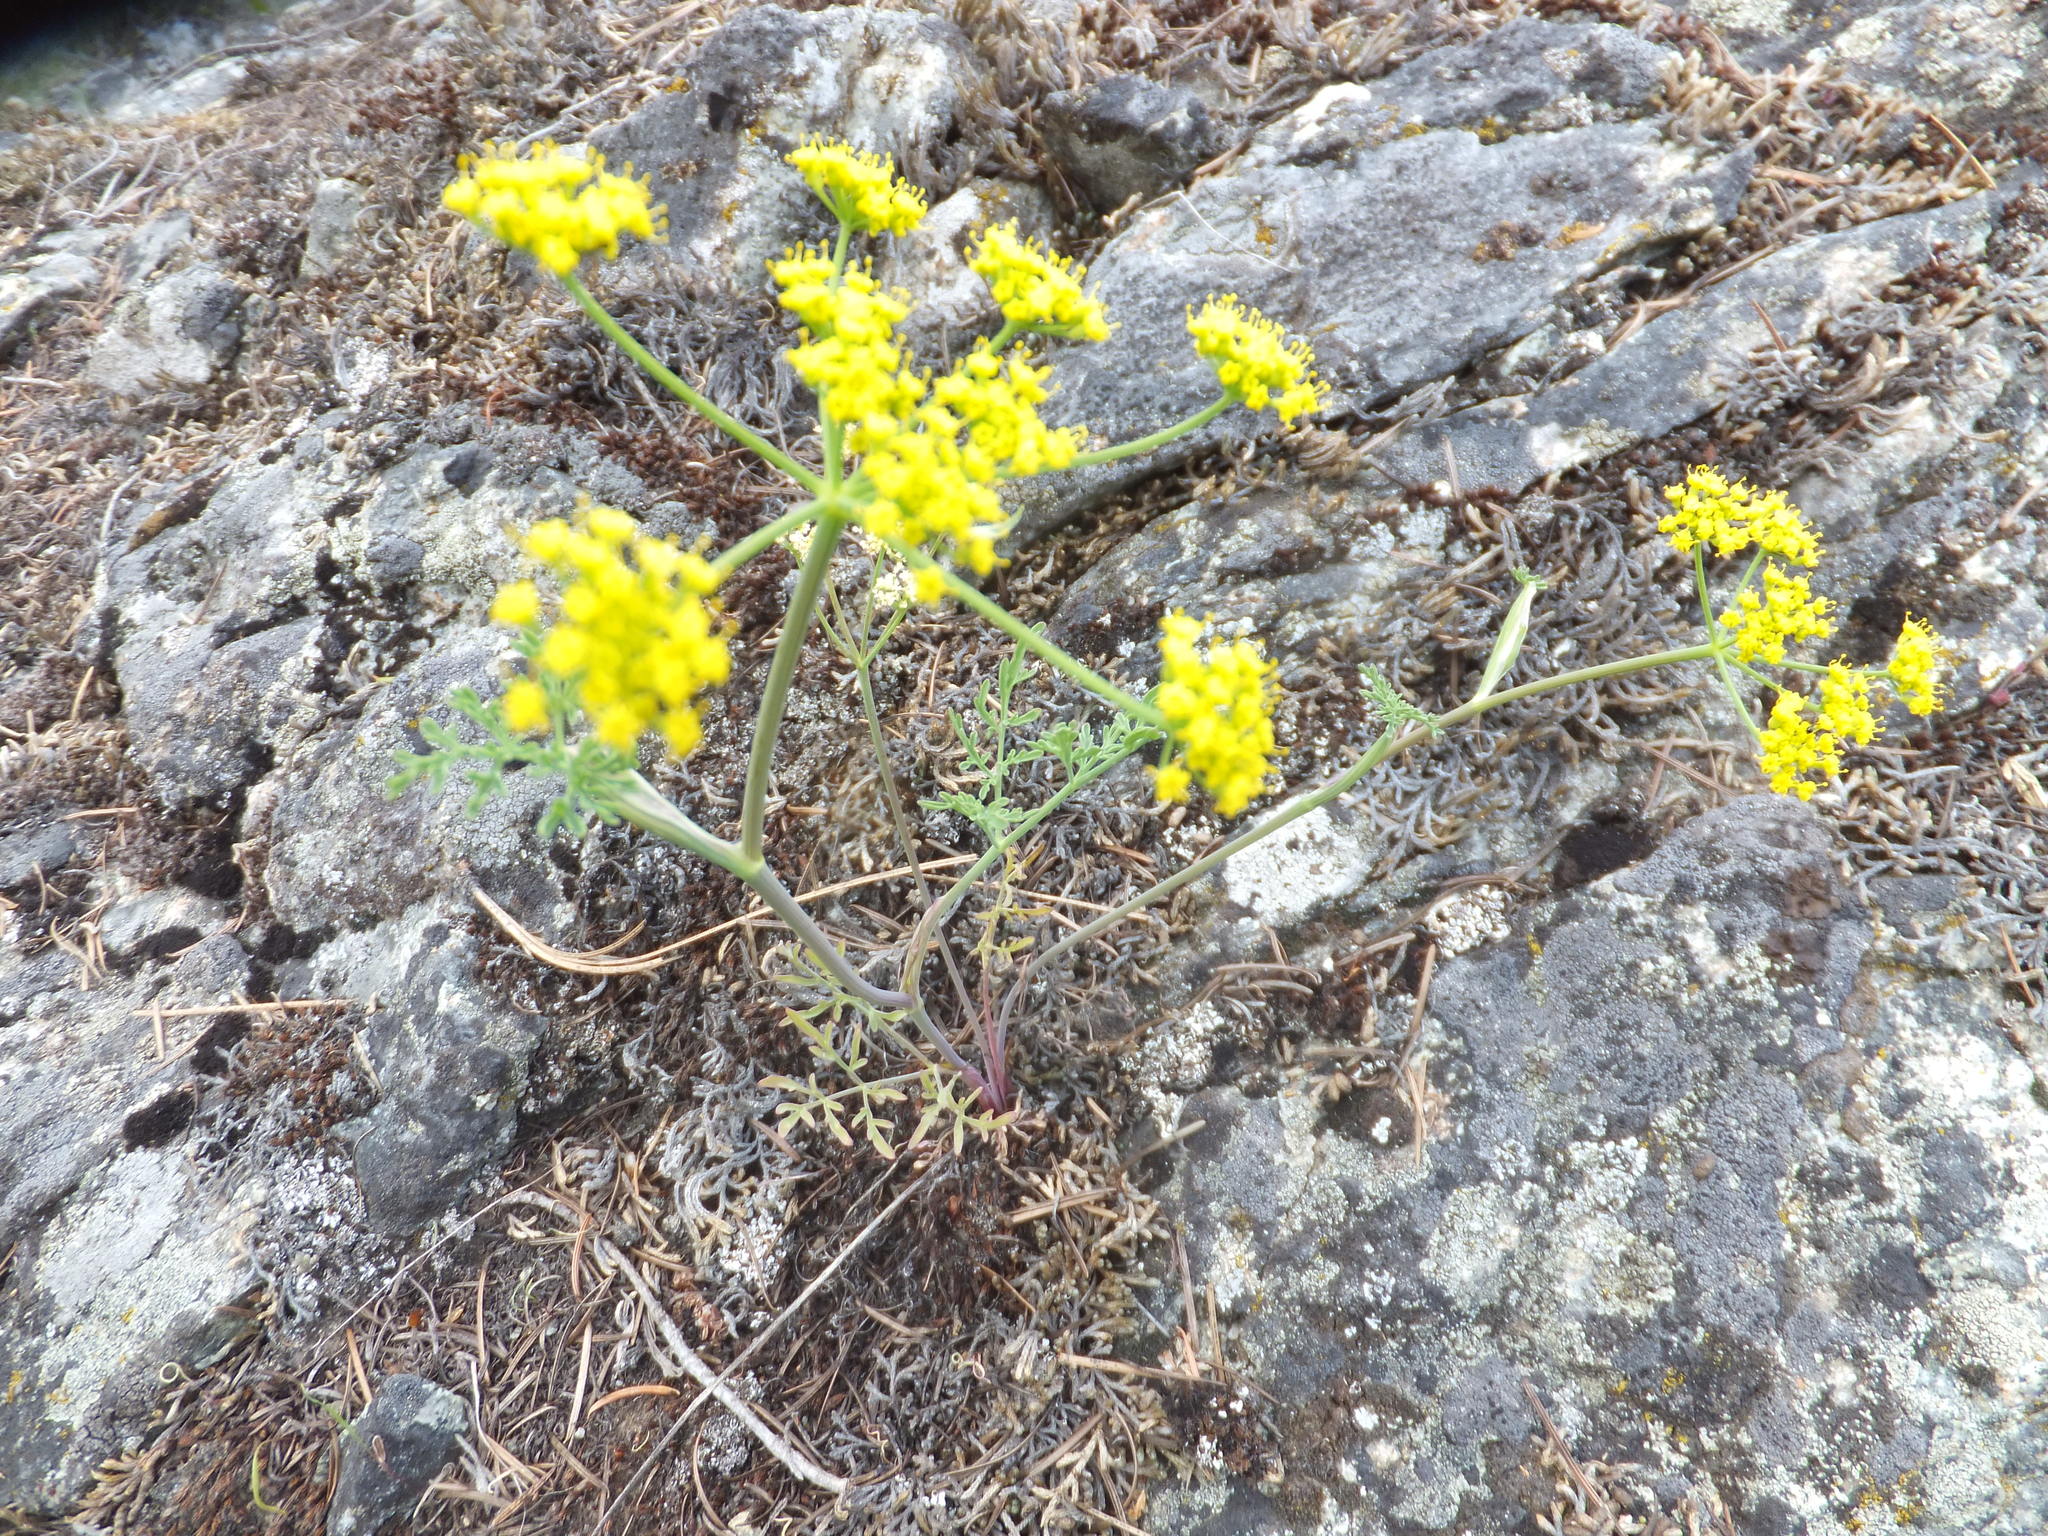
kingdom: Plantae
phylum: Tracheophyta
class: Magnoliopsida
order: Apiales
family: Apiaceae
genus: Lomatium
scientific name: Lomatium ambiguum
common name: Lacy lomatium
